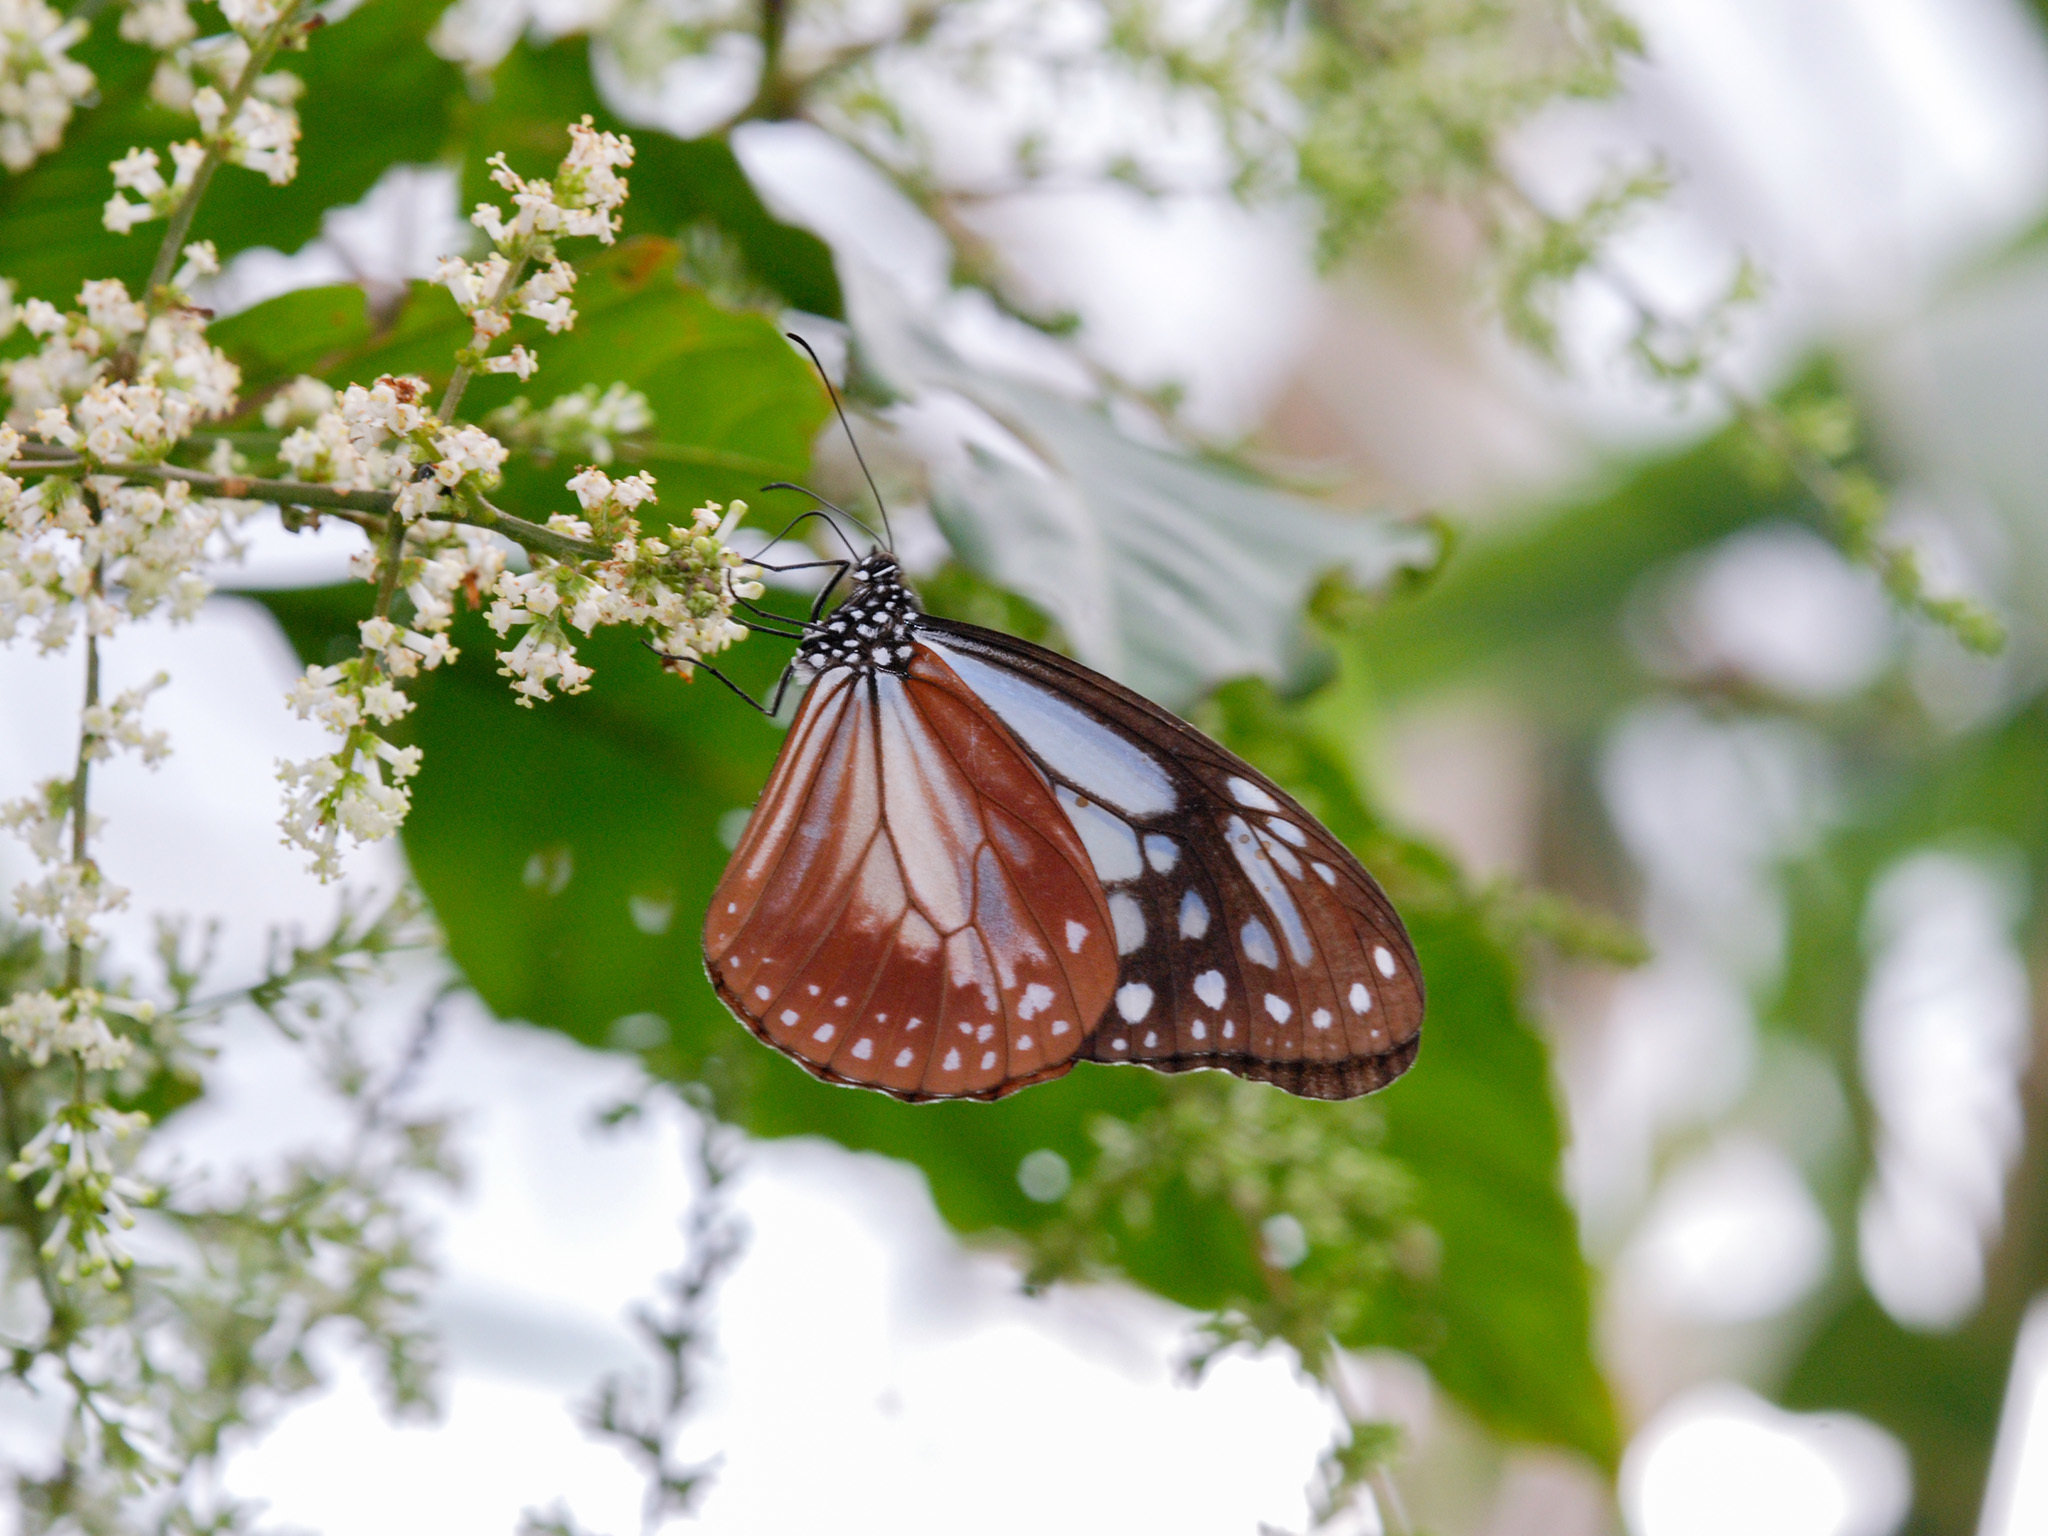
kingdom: Animalia
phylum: Arthropoda
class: Insecta
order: Lepidoptera
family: Nymphalidae
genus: Parantica
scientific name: Parantica sita
